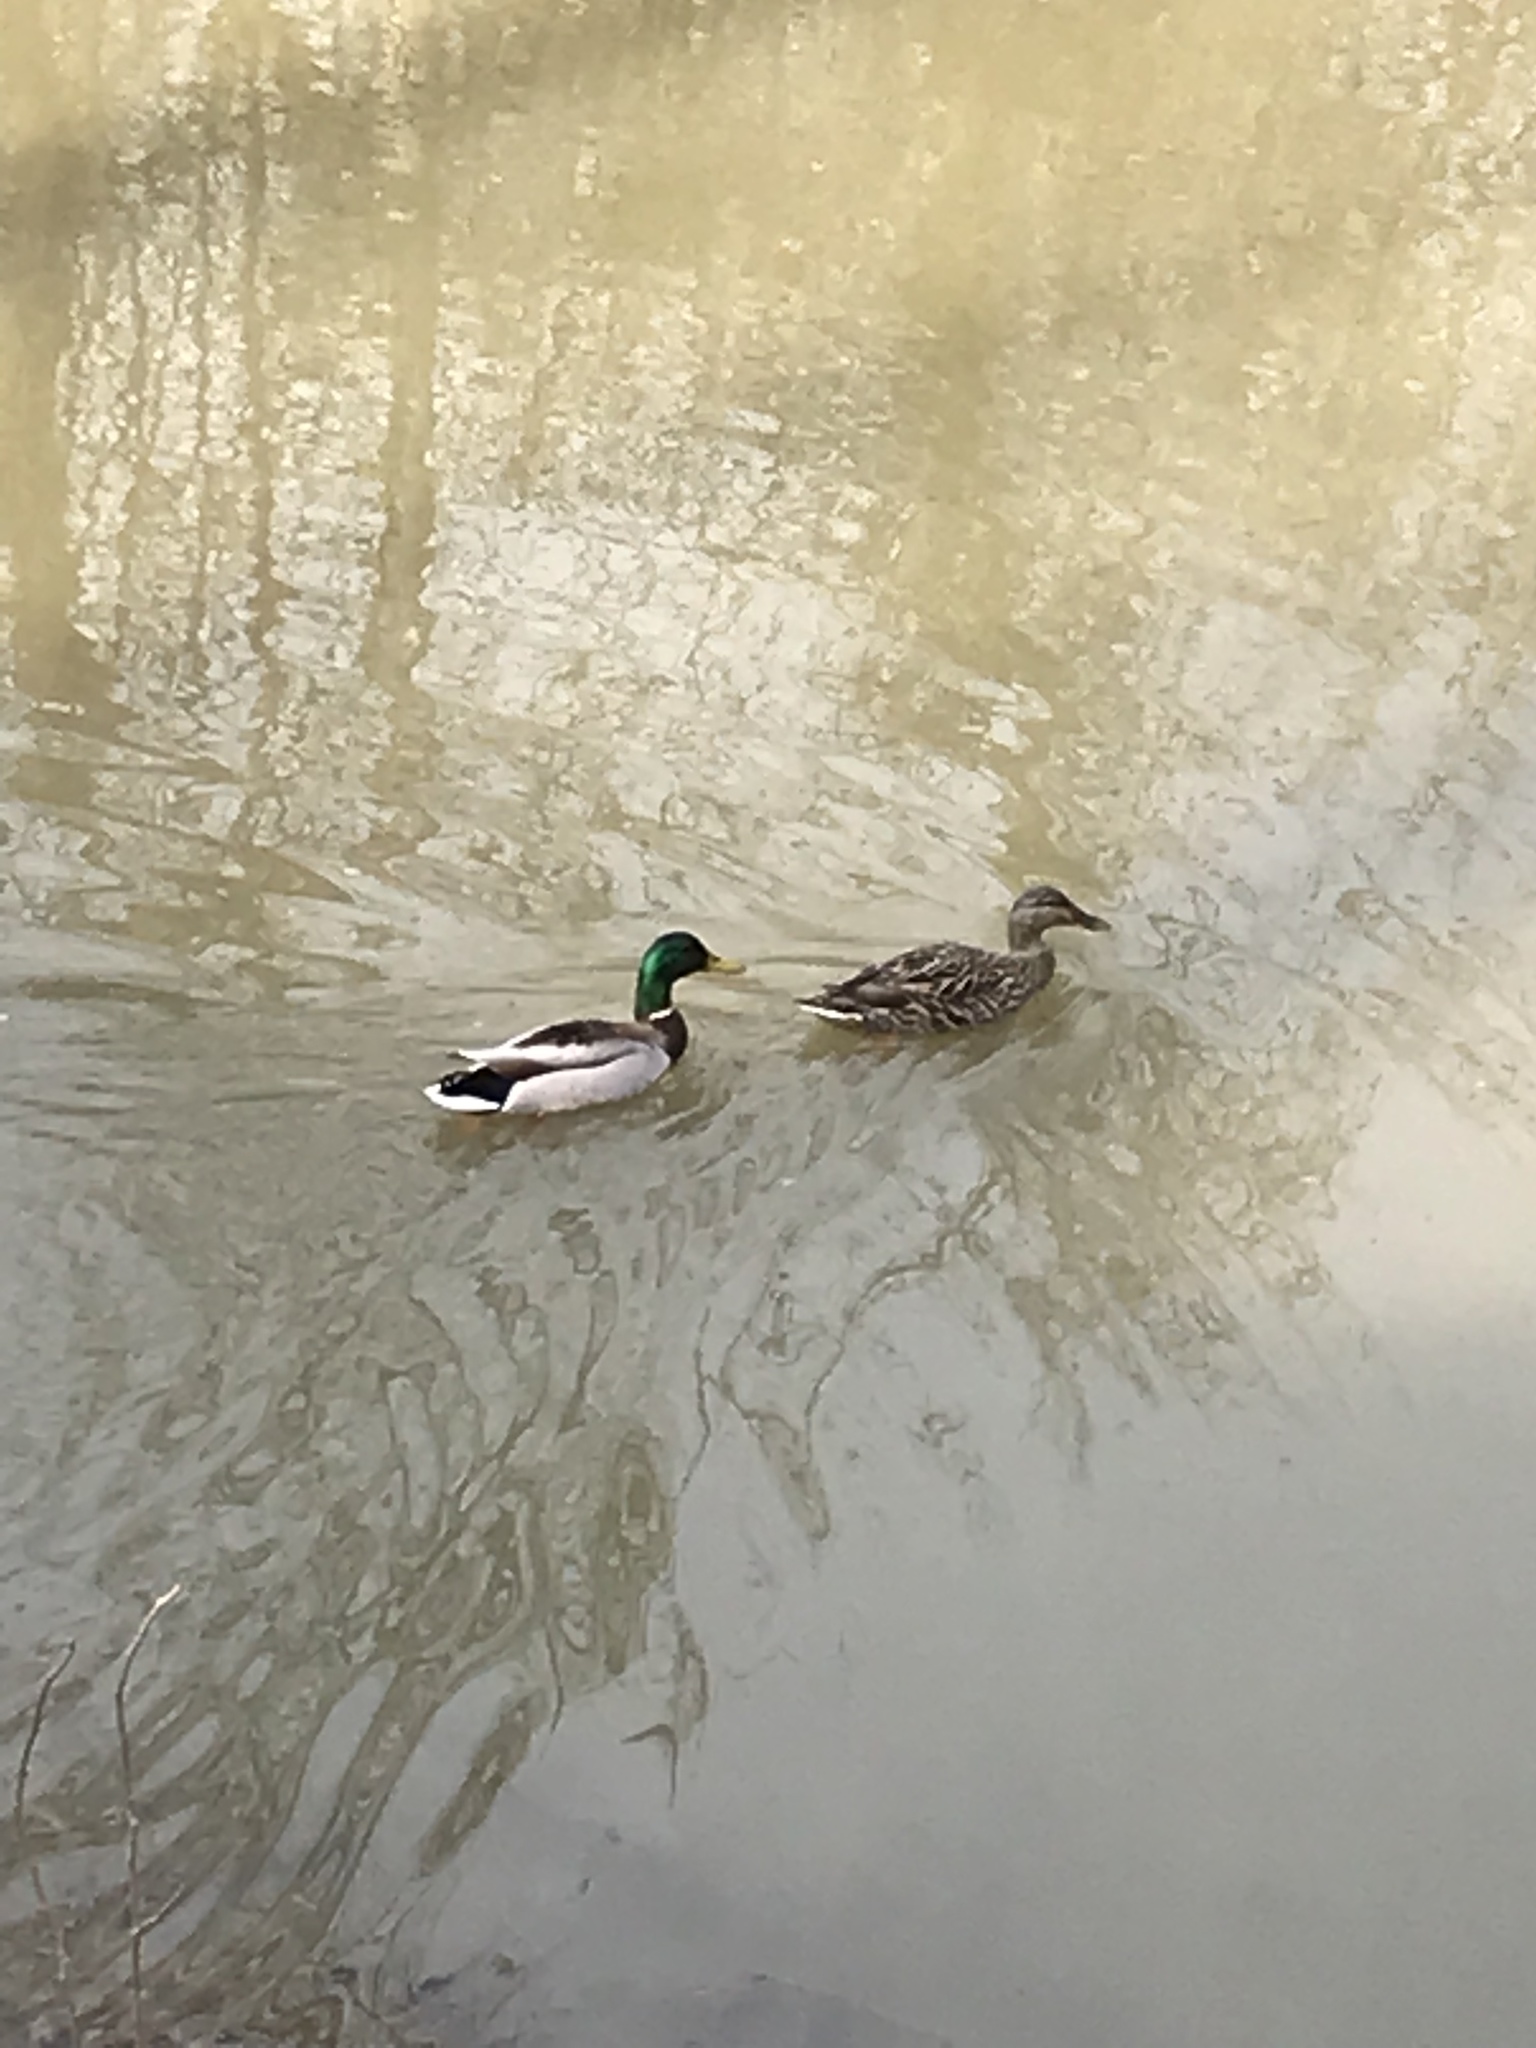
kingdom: Animalia
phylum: Chordata
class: Aves
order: Anseriformes
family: Anatidae
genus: Anas
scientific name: Anas platyrhynchos
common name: Mallard
